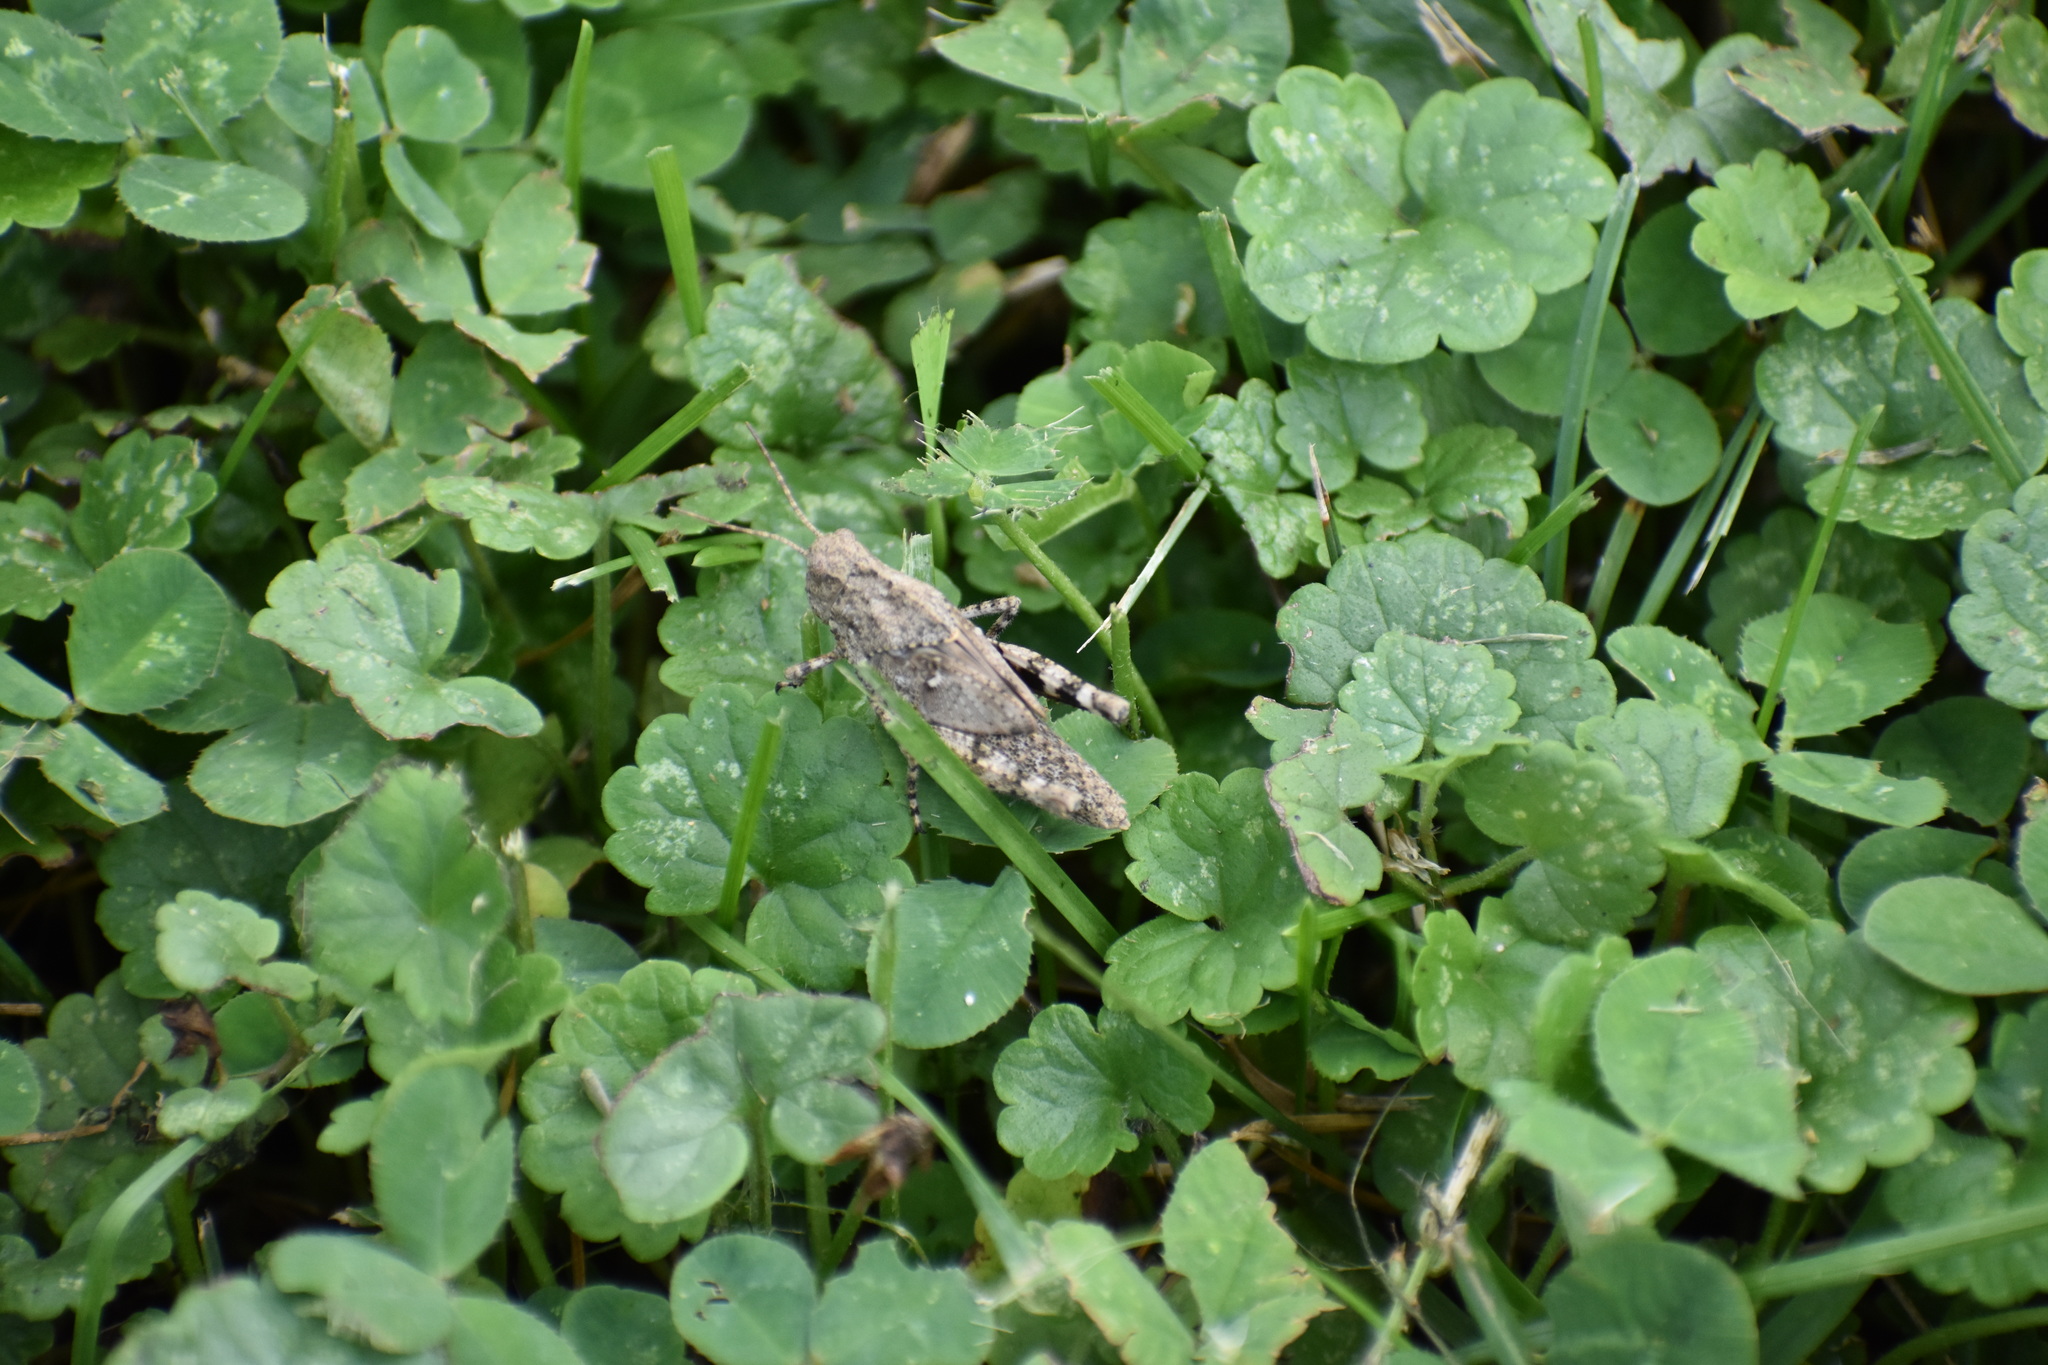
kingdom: Animalia
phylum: Arthropoda
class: Insecta
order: Orthoptera
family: Acrididae
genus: Dissosteira
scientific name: Dissosteira carolina
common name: Carolina grasshopper
